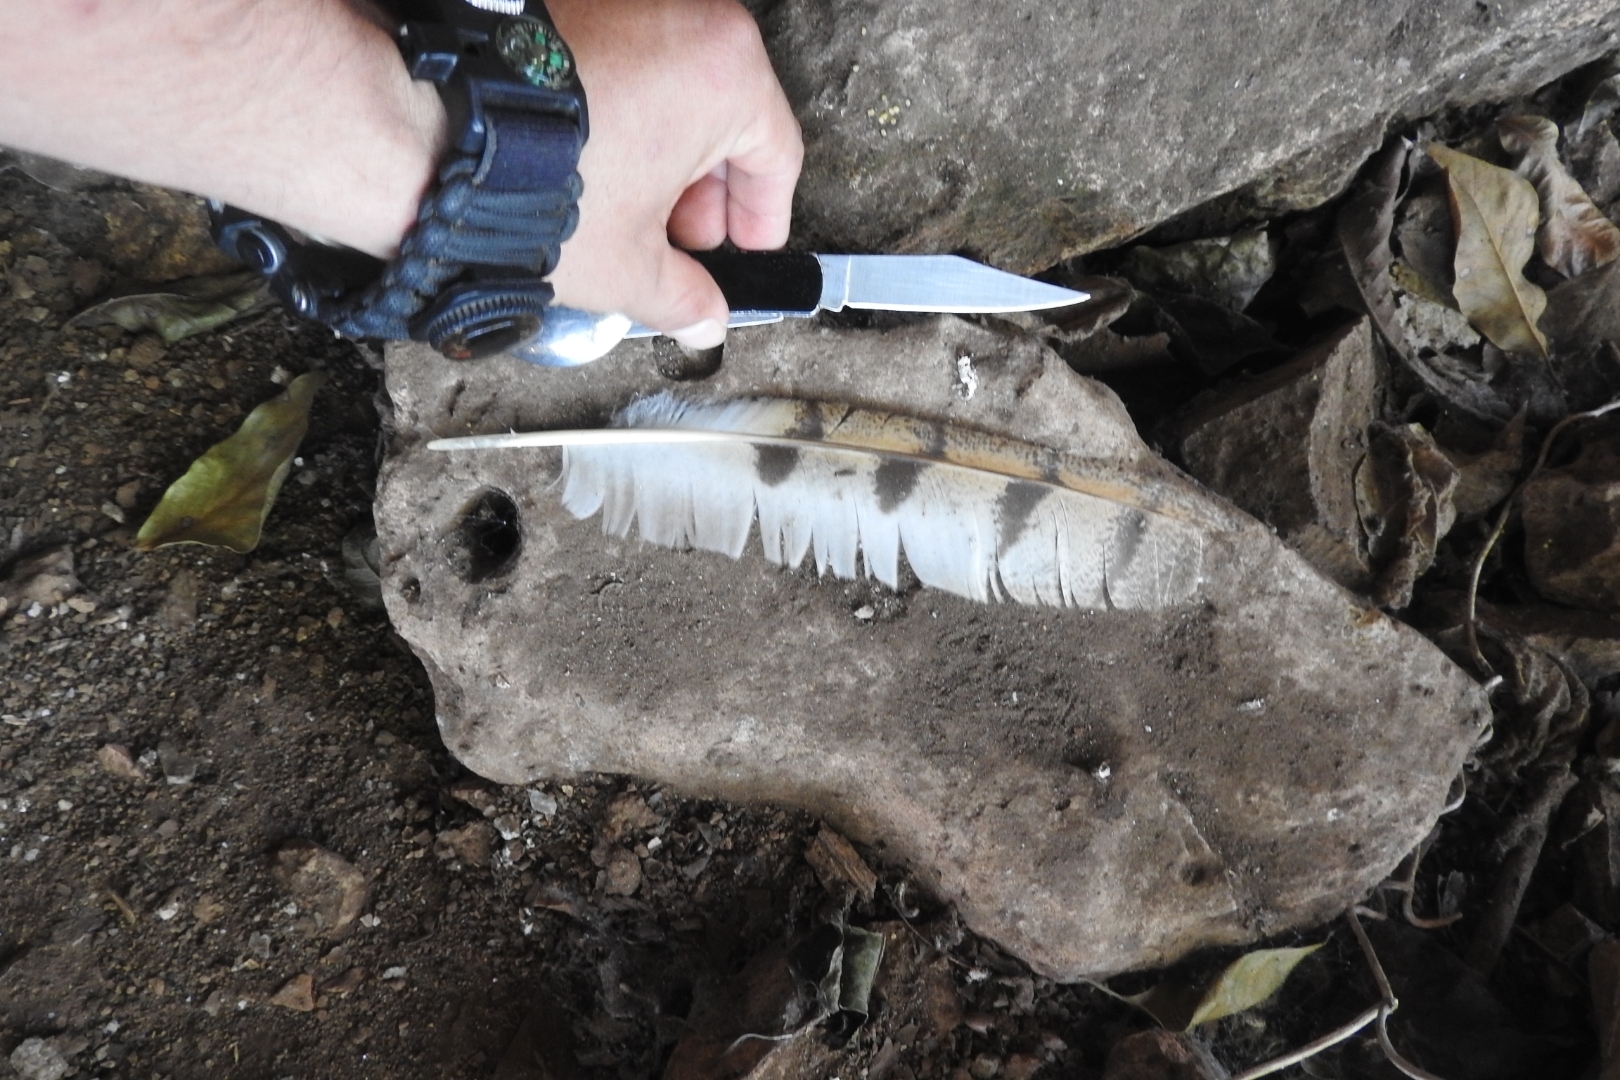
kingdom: Animalia
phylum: Chordata
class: Aves
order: Strigiformes
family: Tytonidae
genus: Tyto
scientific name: Tyto alba
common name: Barn owl
